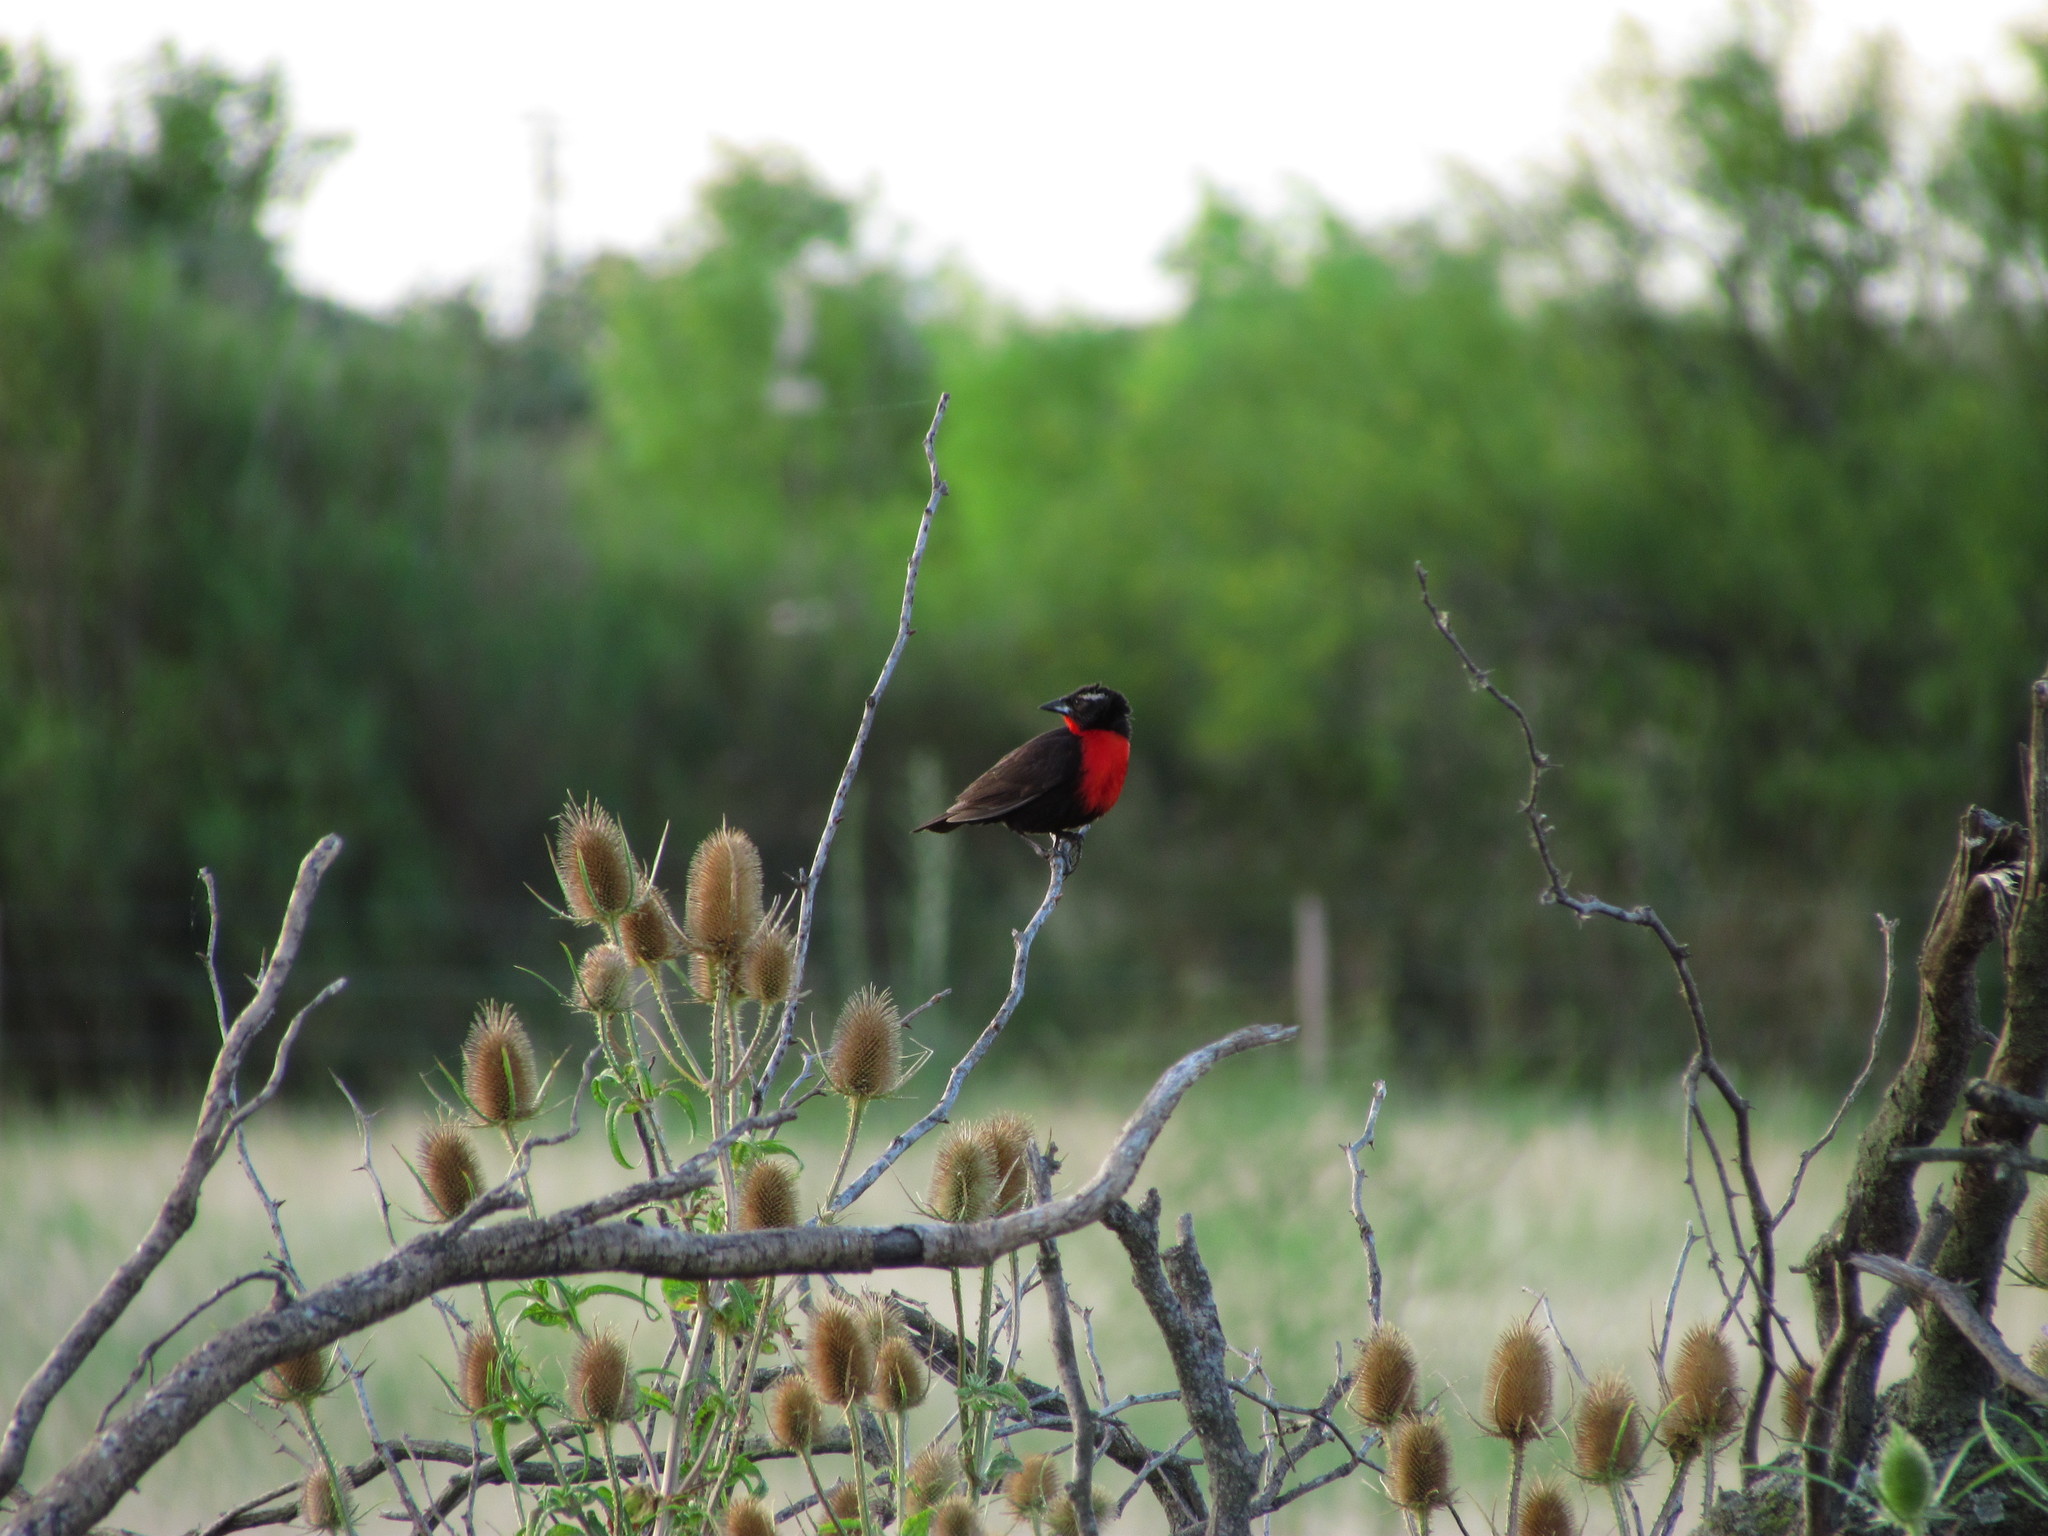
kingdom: Animalia
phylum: Chordata
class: Aves
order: Passeriformes
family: Icteridae
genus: Sturnella
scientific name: Sturnella superciliaris
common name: White-browed blackbird
